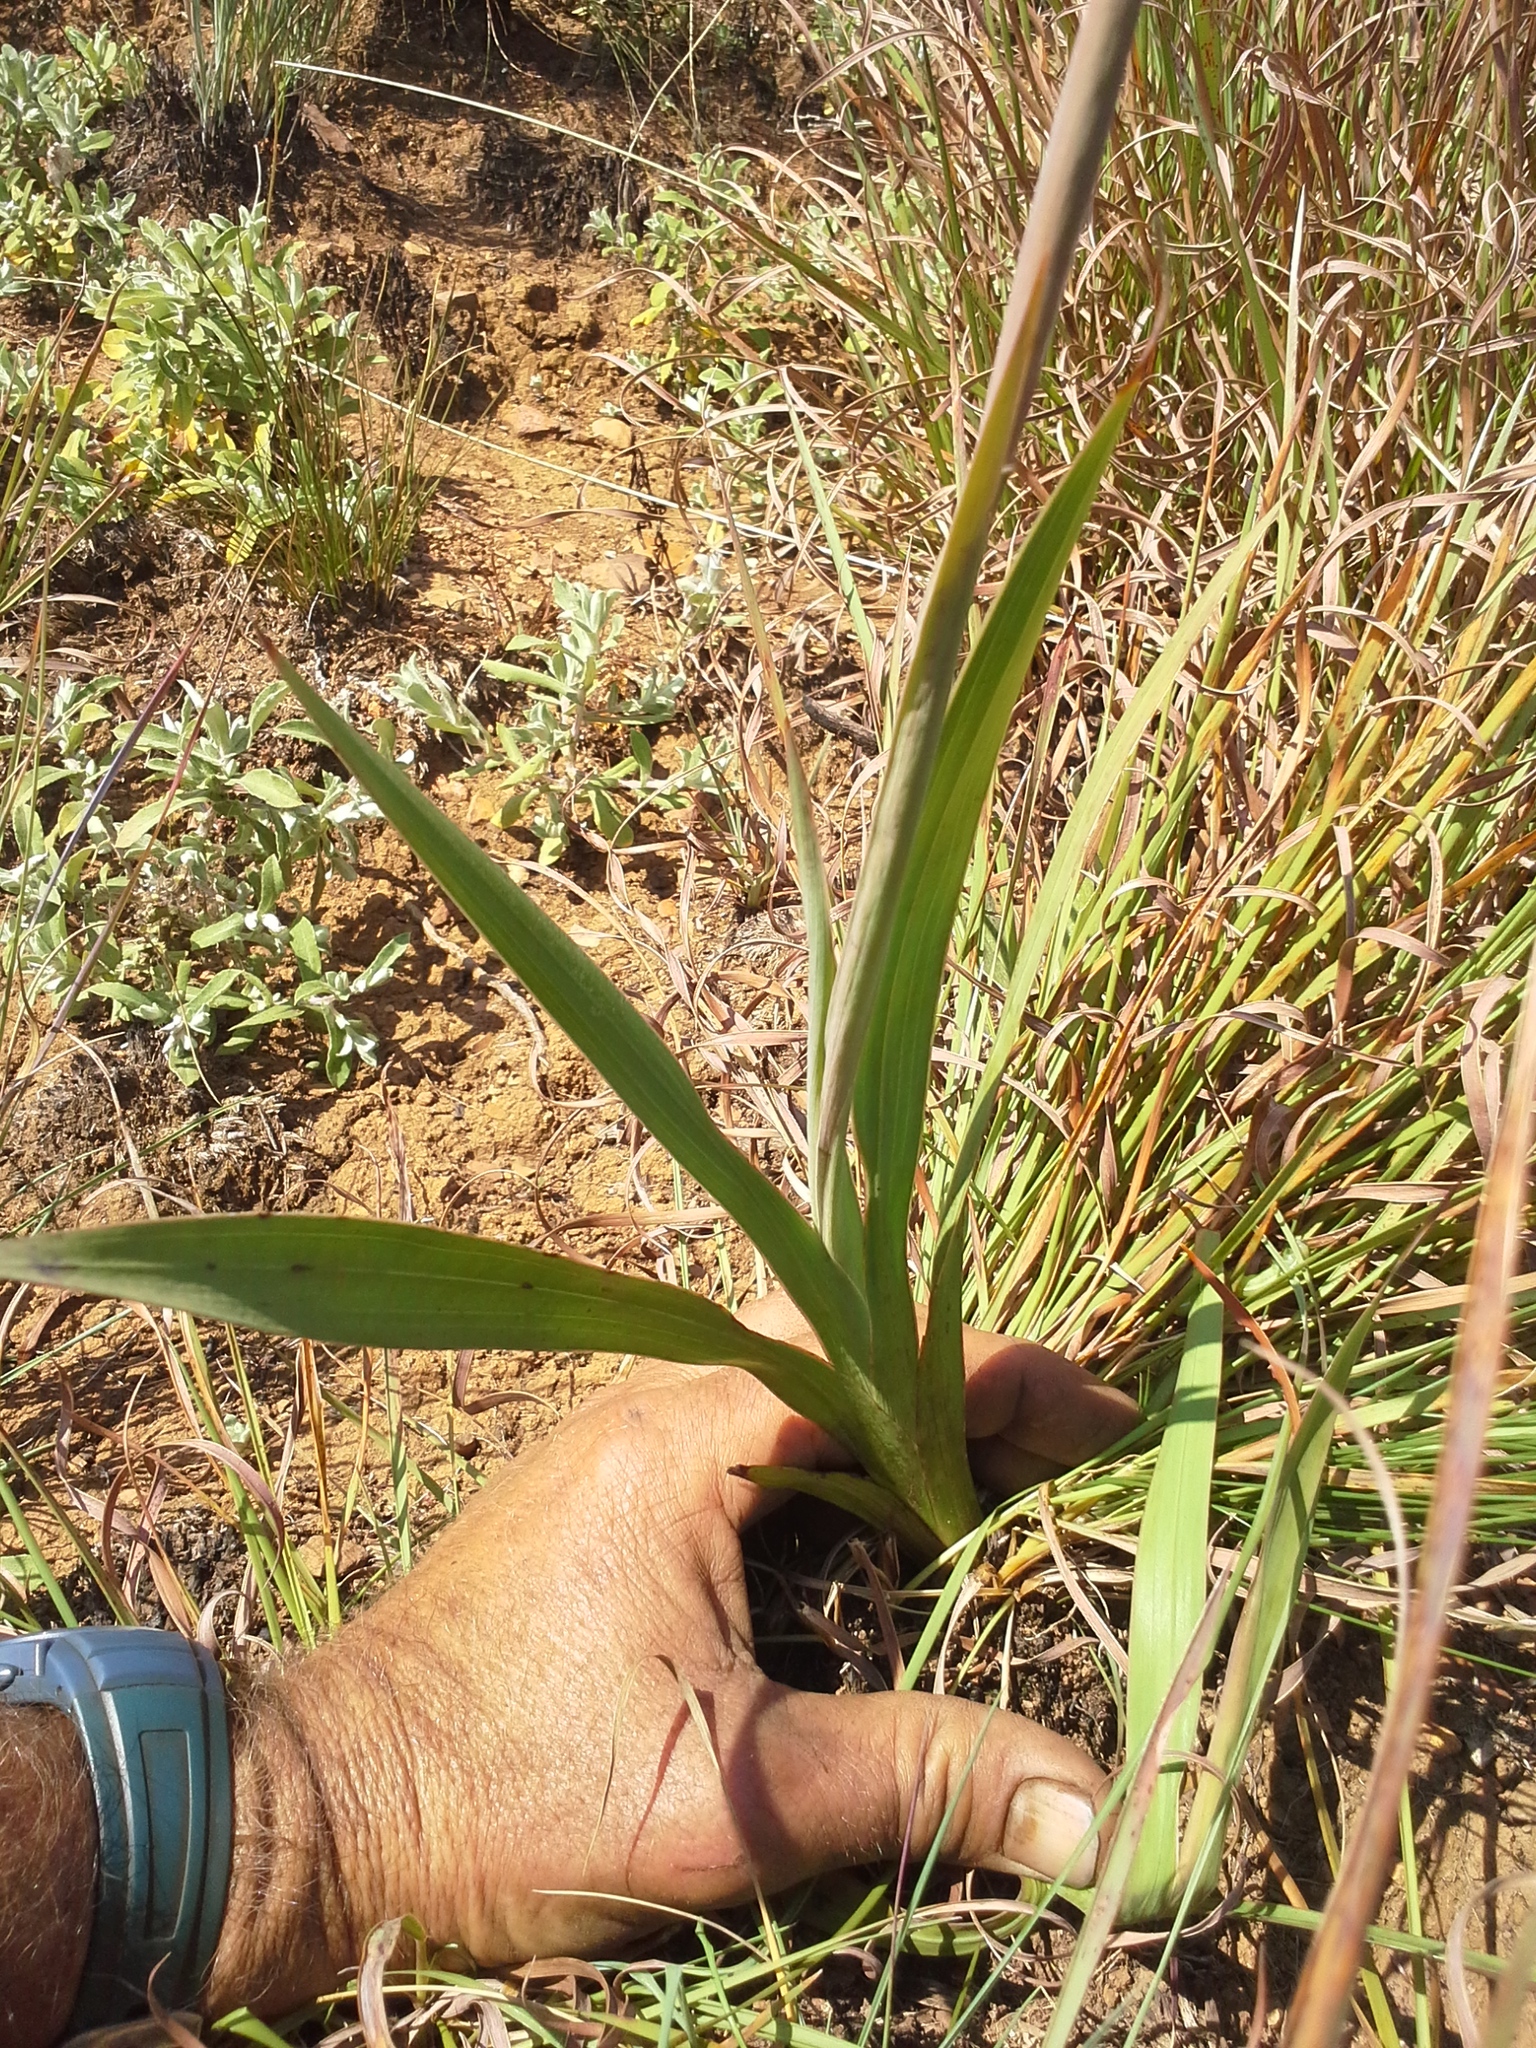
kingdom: Plantae
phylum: Tracheophyta
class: Liliopsida
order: Asparagales
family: Iridaceae
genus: Gladiolus
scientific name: Gladiolus sericeovillosus
